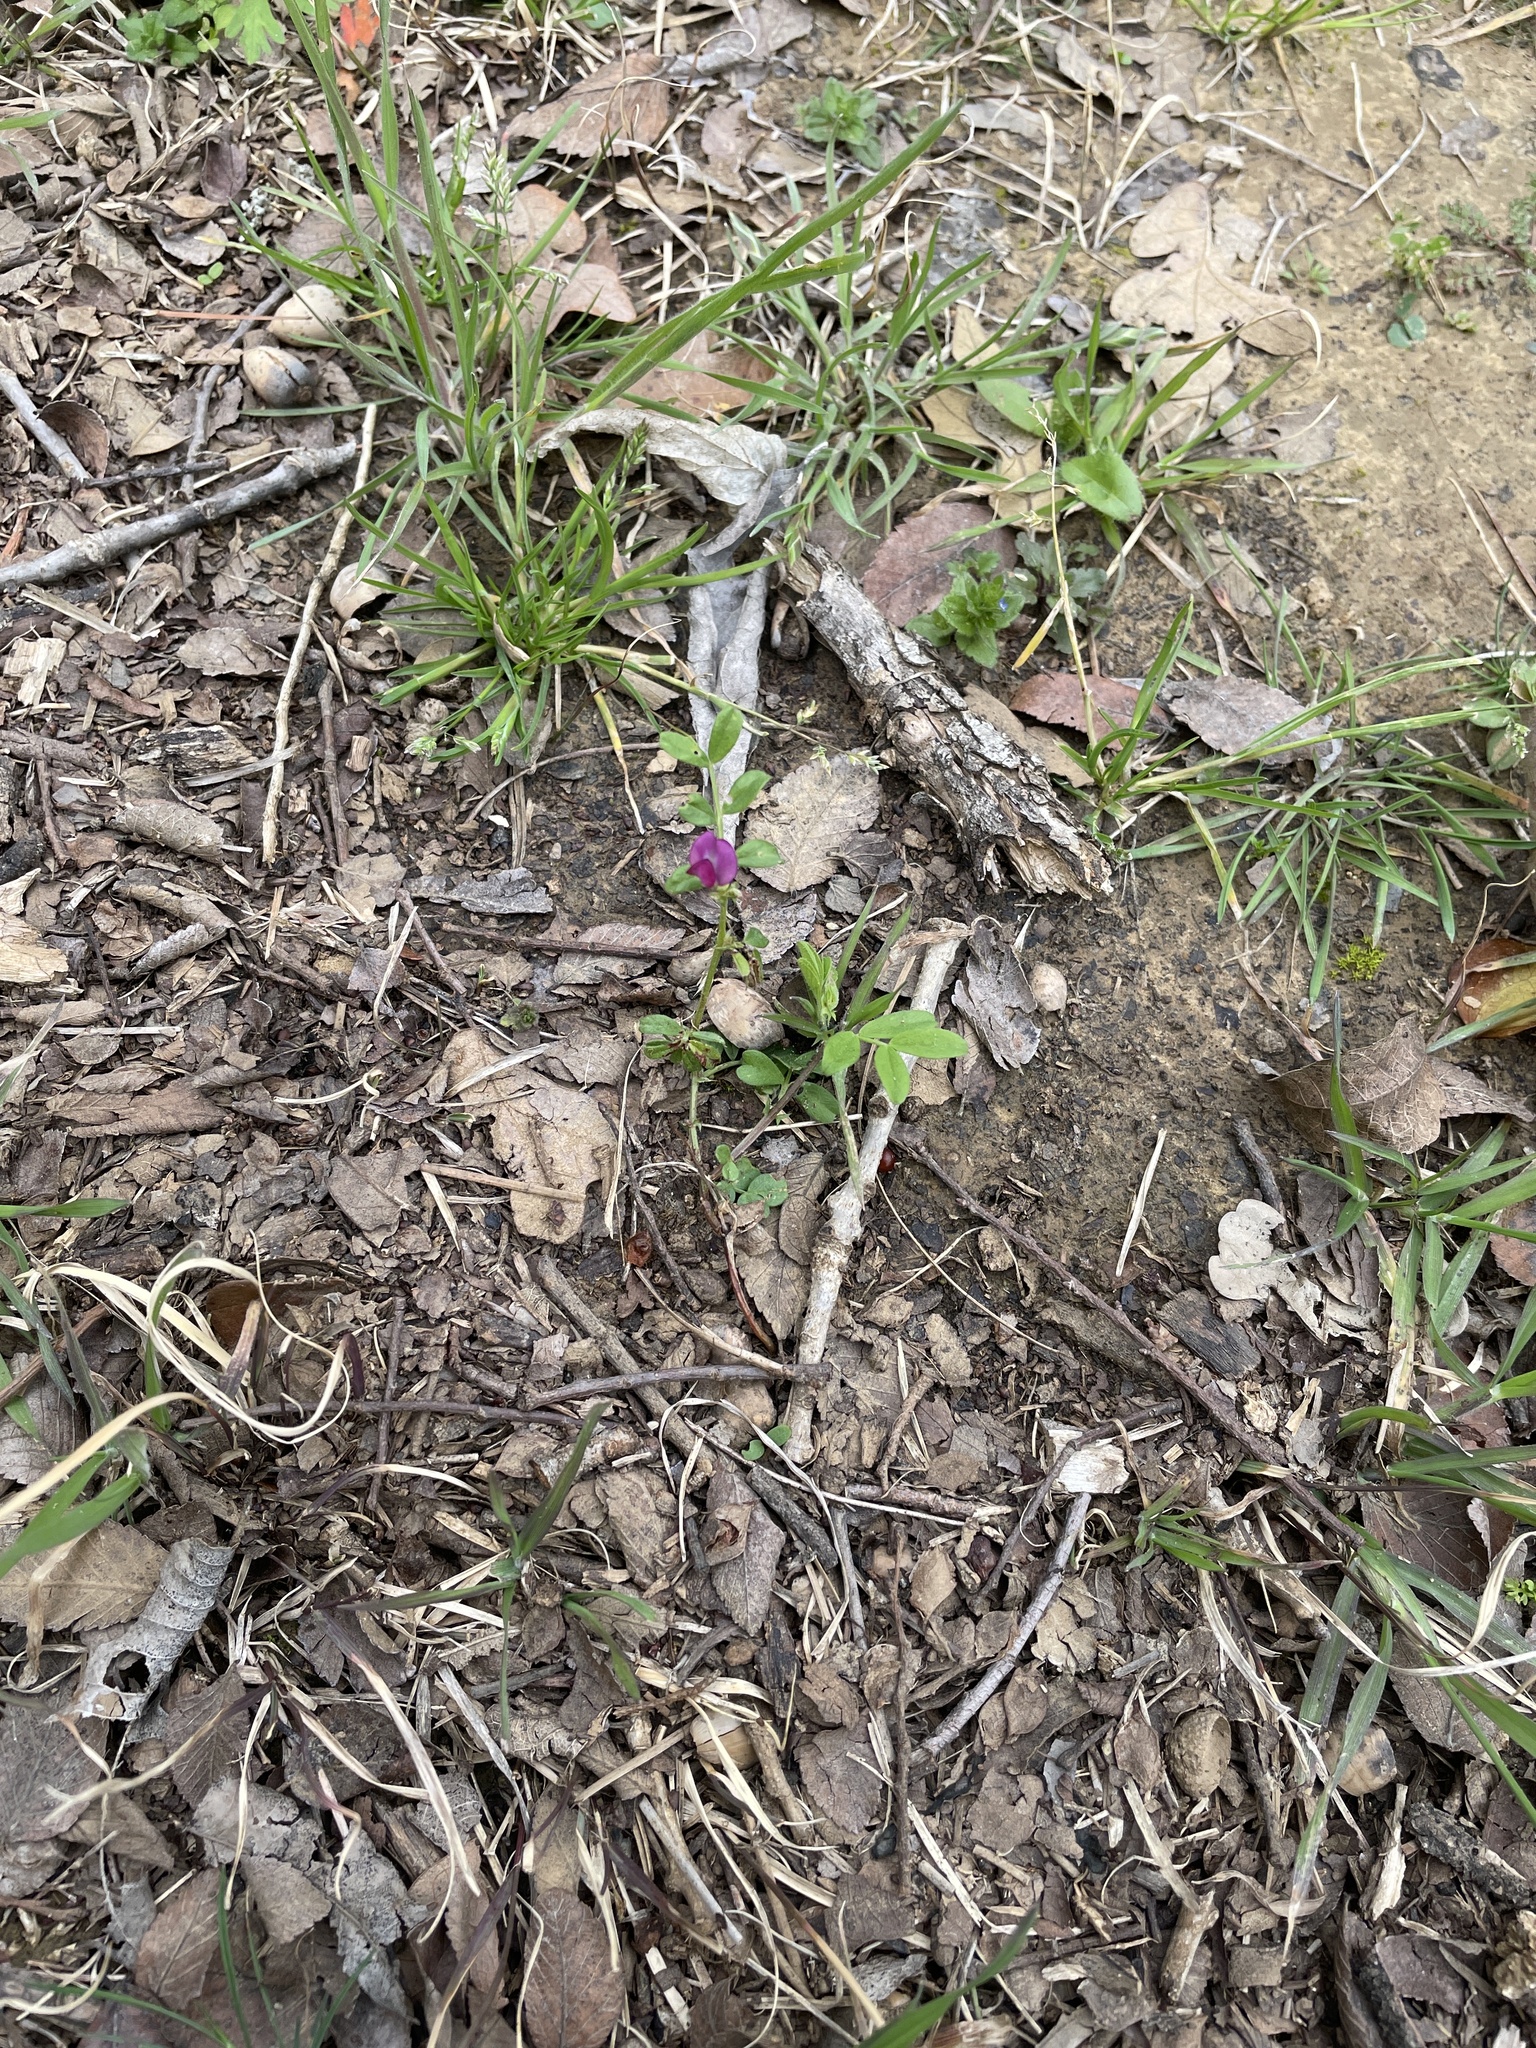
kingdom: Plantae
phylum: Tracheophyta
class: Magnoliopsida
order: Fabales
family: Fabaceae
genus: Vicia
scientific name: Vicia sativa
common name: Garden vetch
